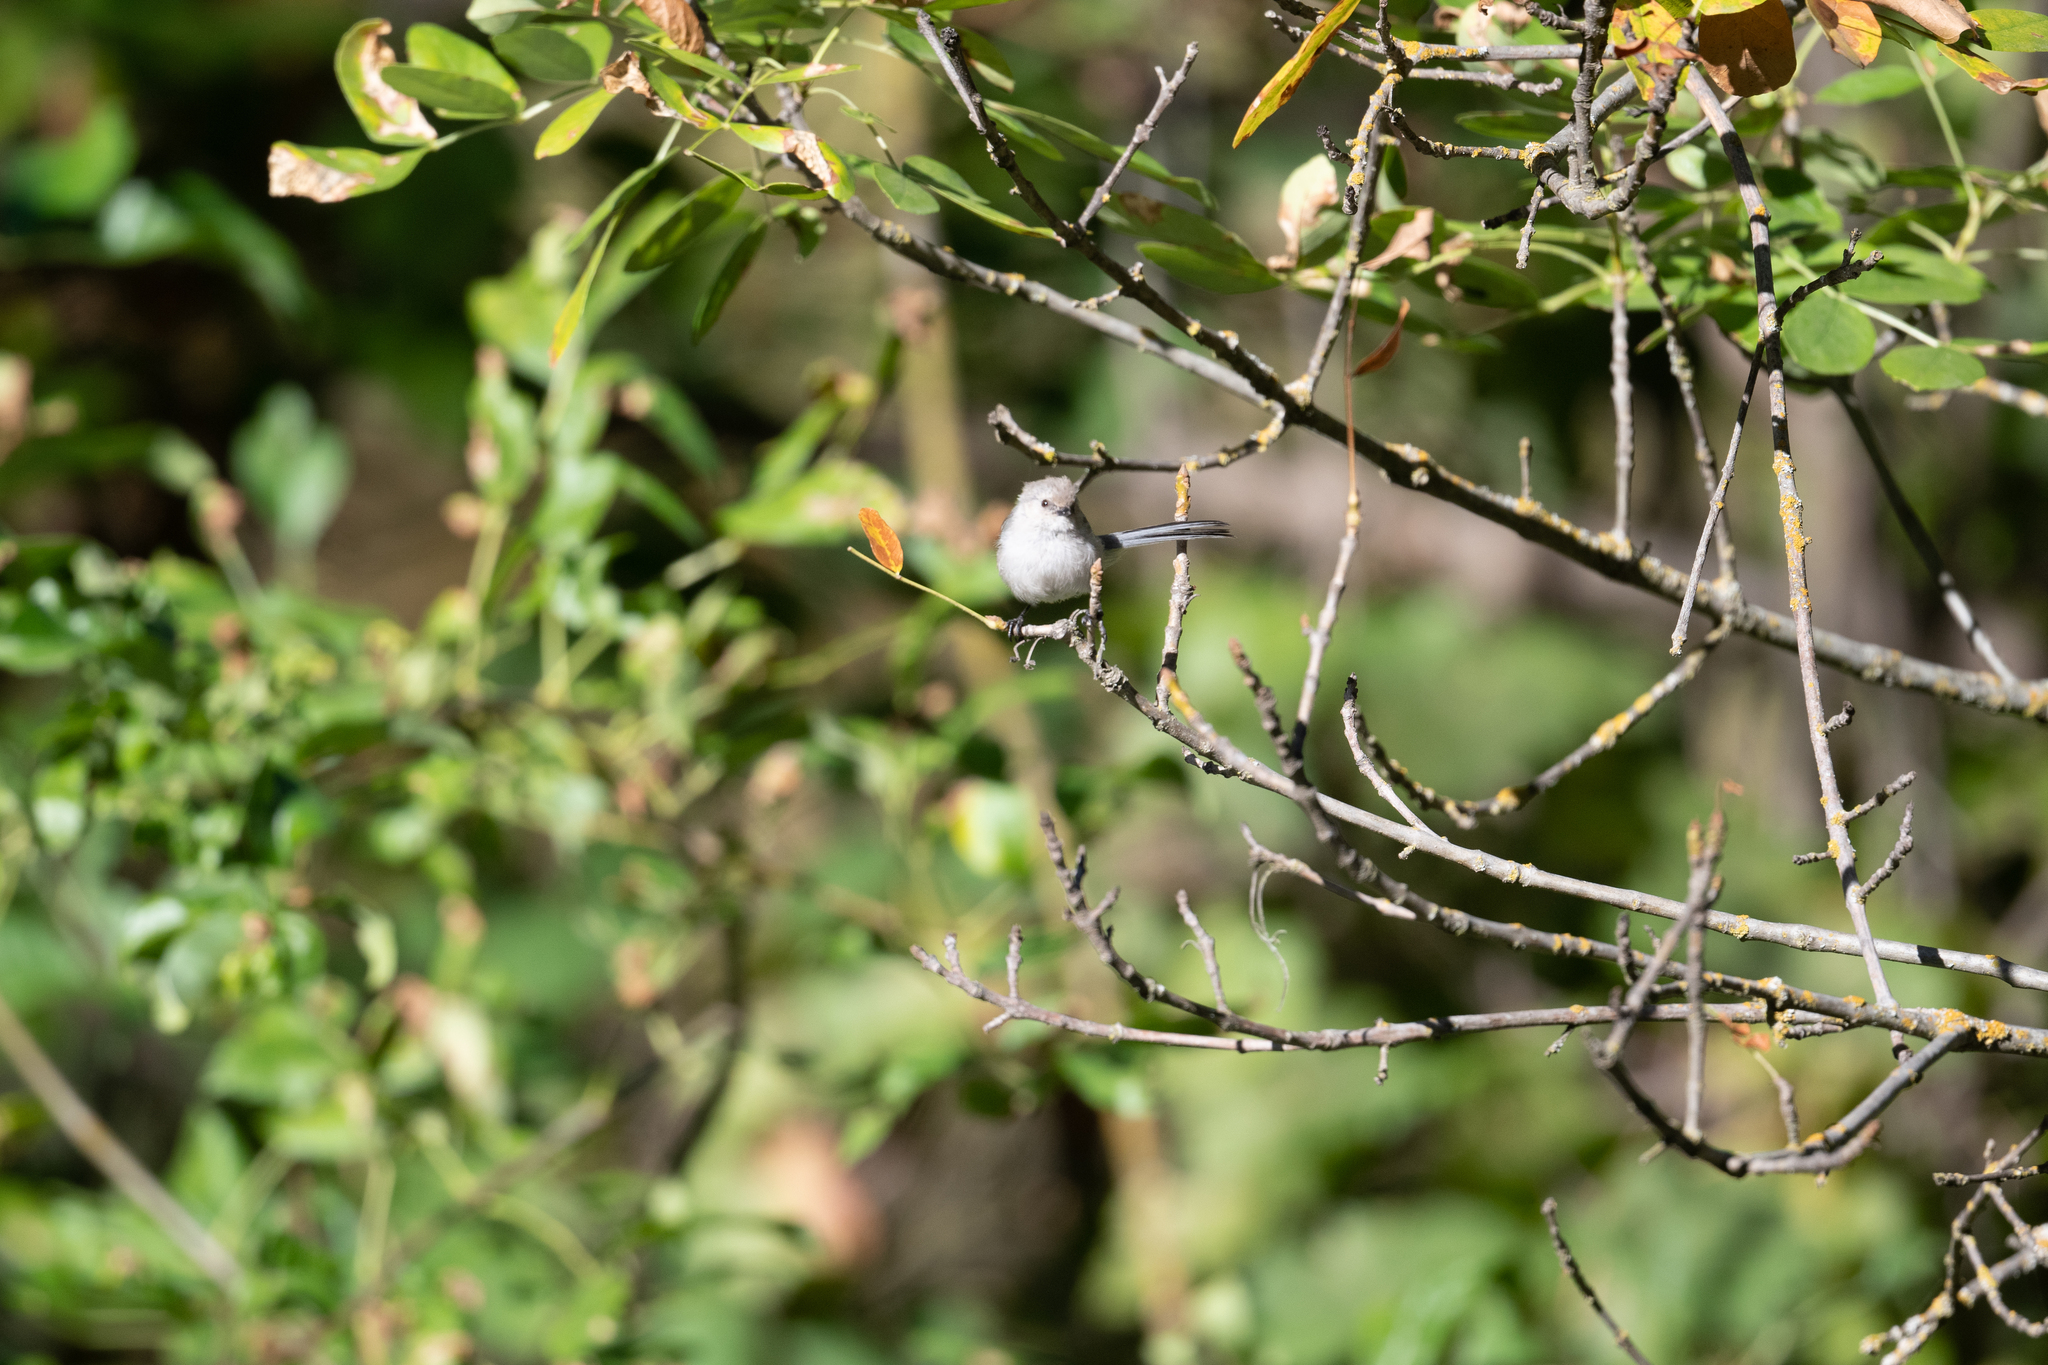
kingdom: Animalia
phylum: Chordata
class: Aves
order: Passeriformes
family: Aegithalidae
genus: Psaltriparus
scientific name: Psaltriparus minimus
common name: American bushtit
